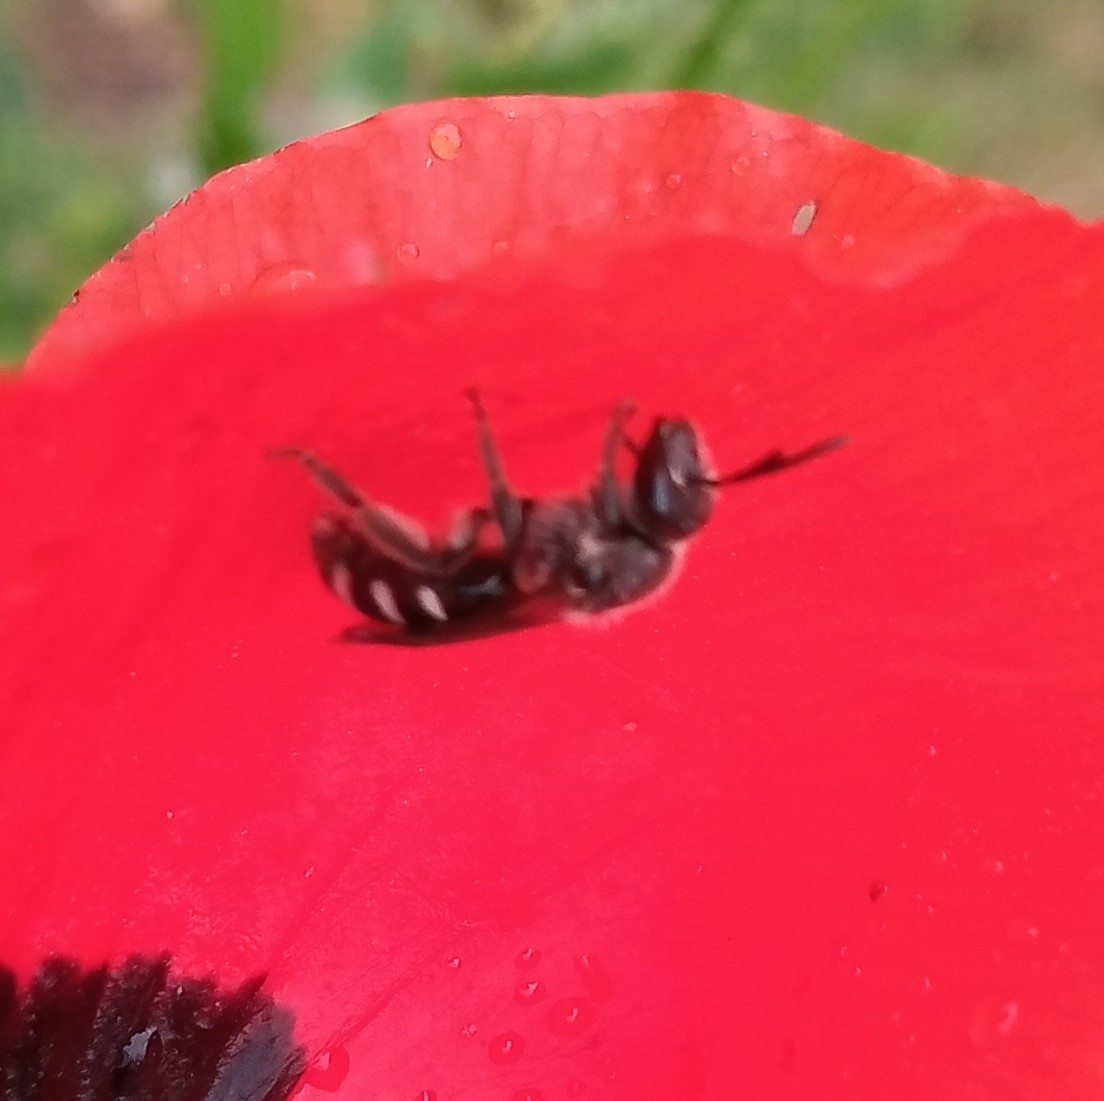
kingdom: Animalia
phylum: Arthropoda
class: Insecta
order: Hymenoptera
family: Halictidae
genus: Lasioglossum
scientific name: Lasioglossum sexnotatum
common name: Ashy furrow bee
